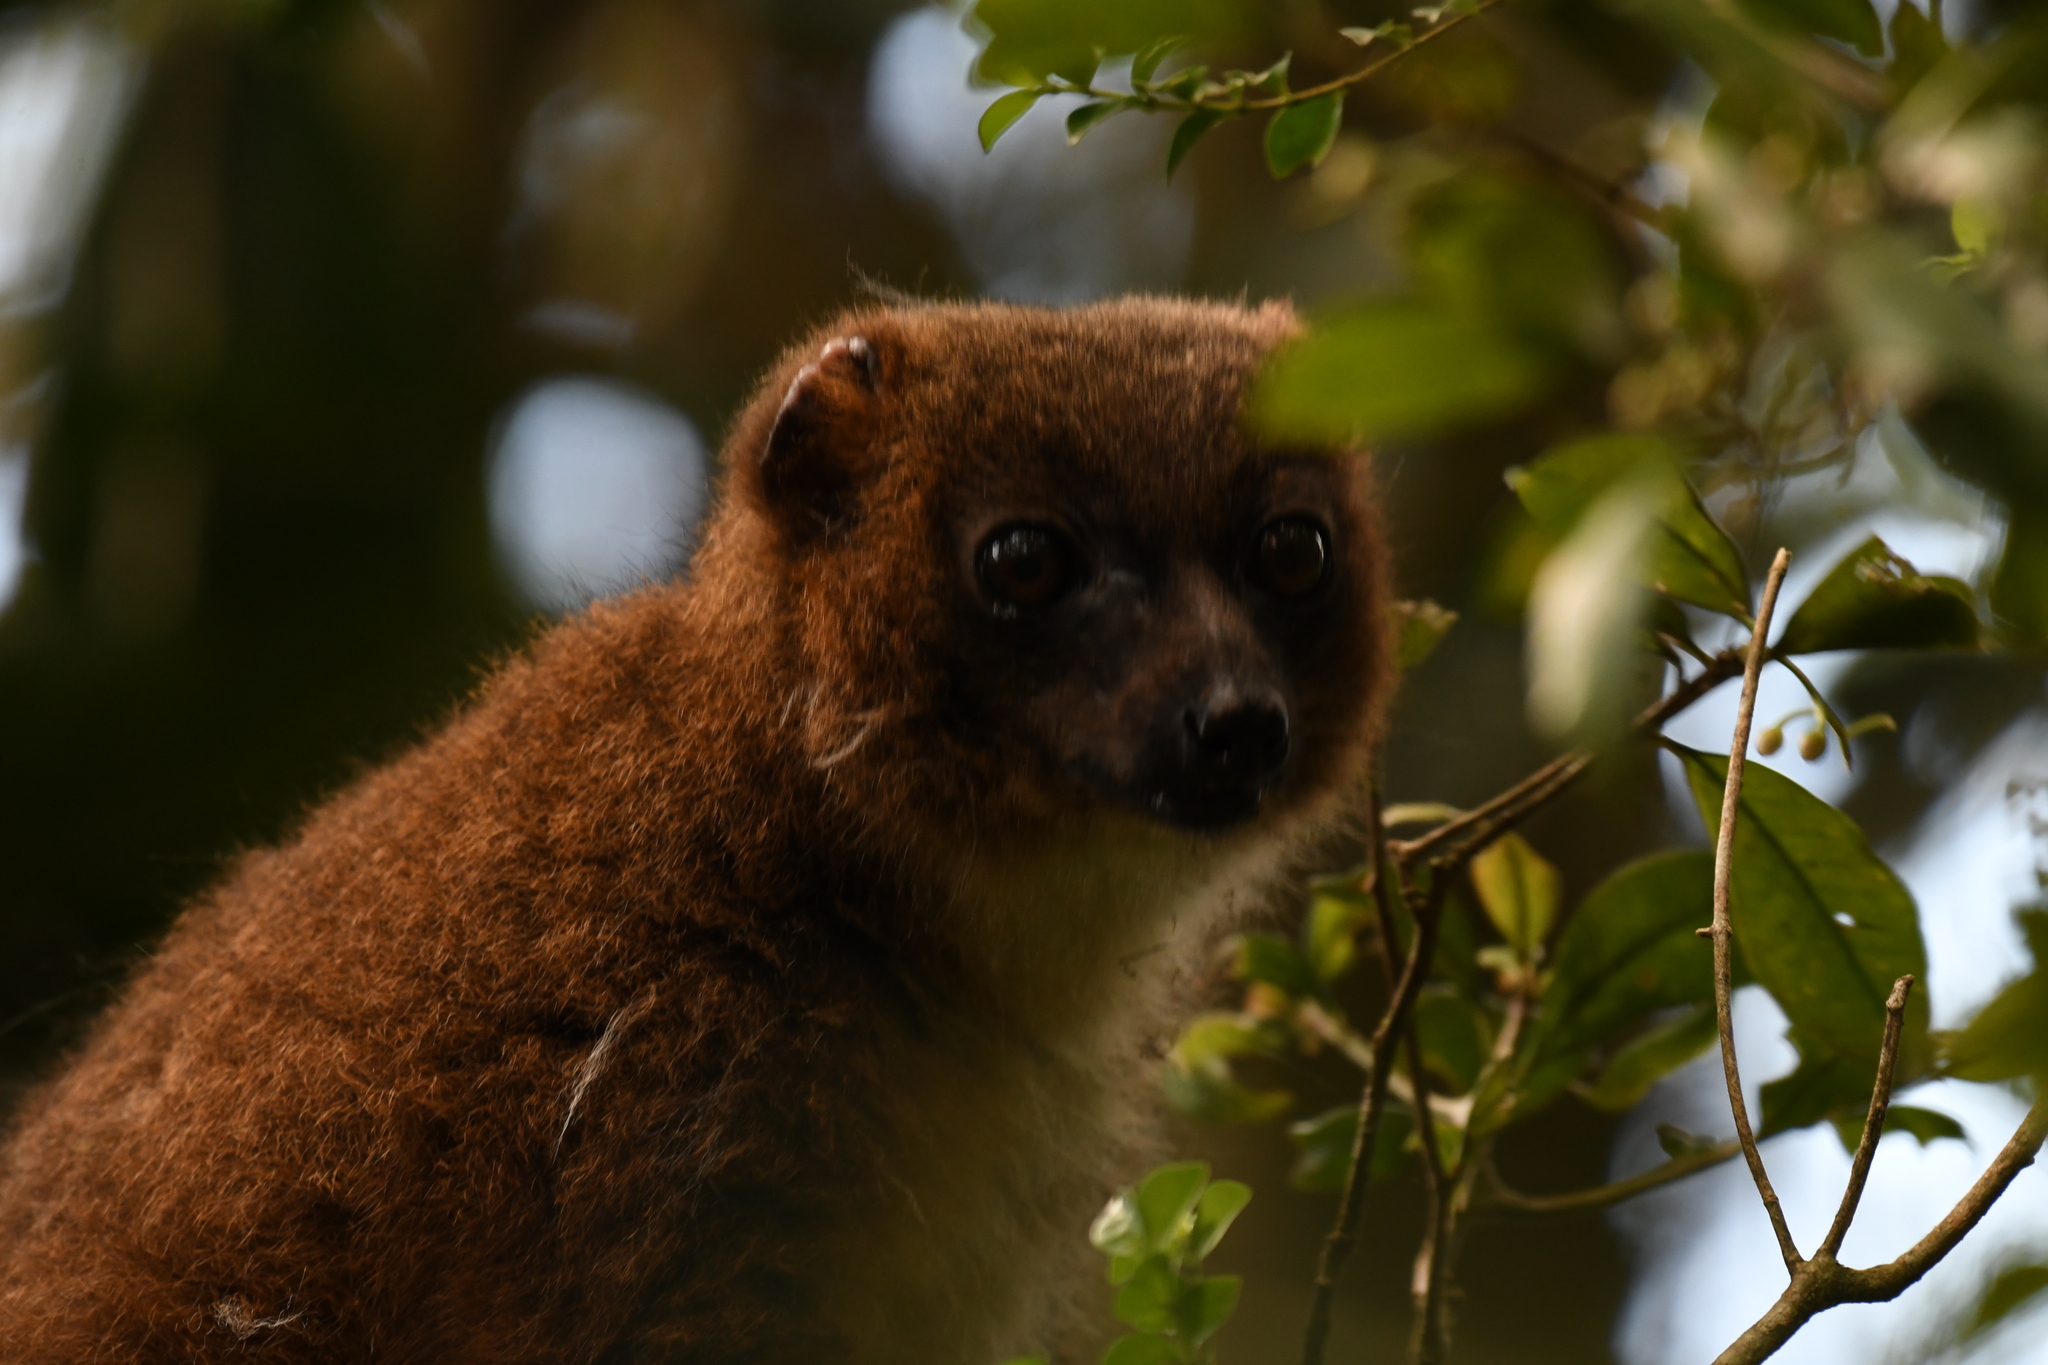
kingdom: Animalia
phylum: Chordata
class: Mammalia
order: Primates
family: Lemuridae
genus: Eulemur
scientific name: Eulemur rubriventer
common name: Red-bellied lemur
